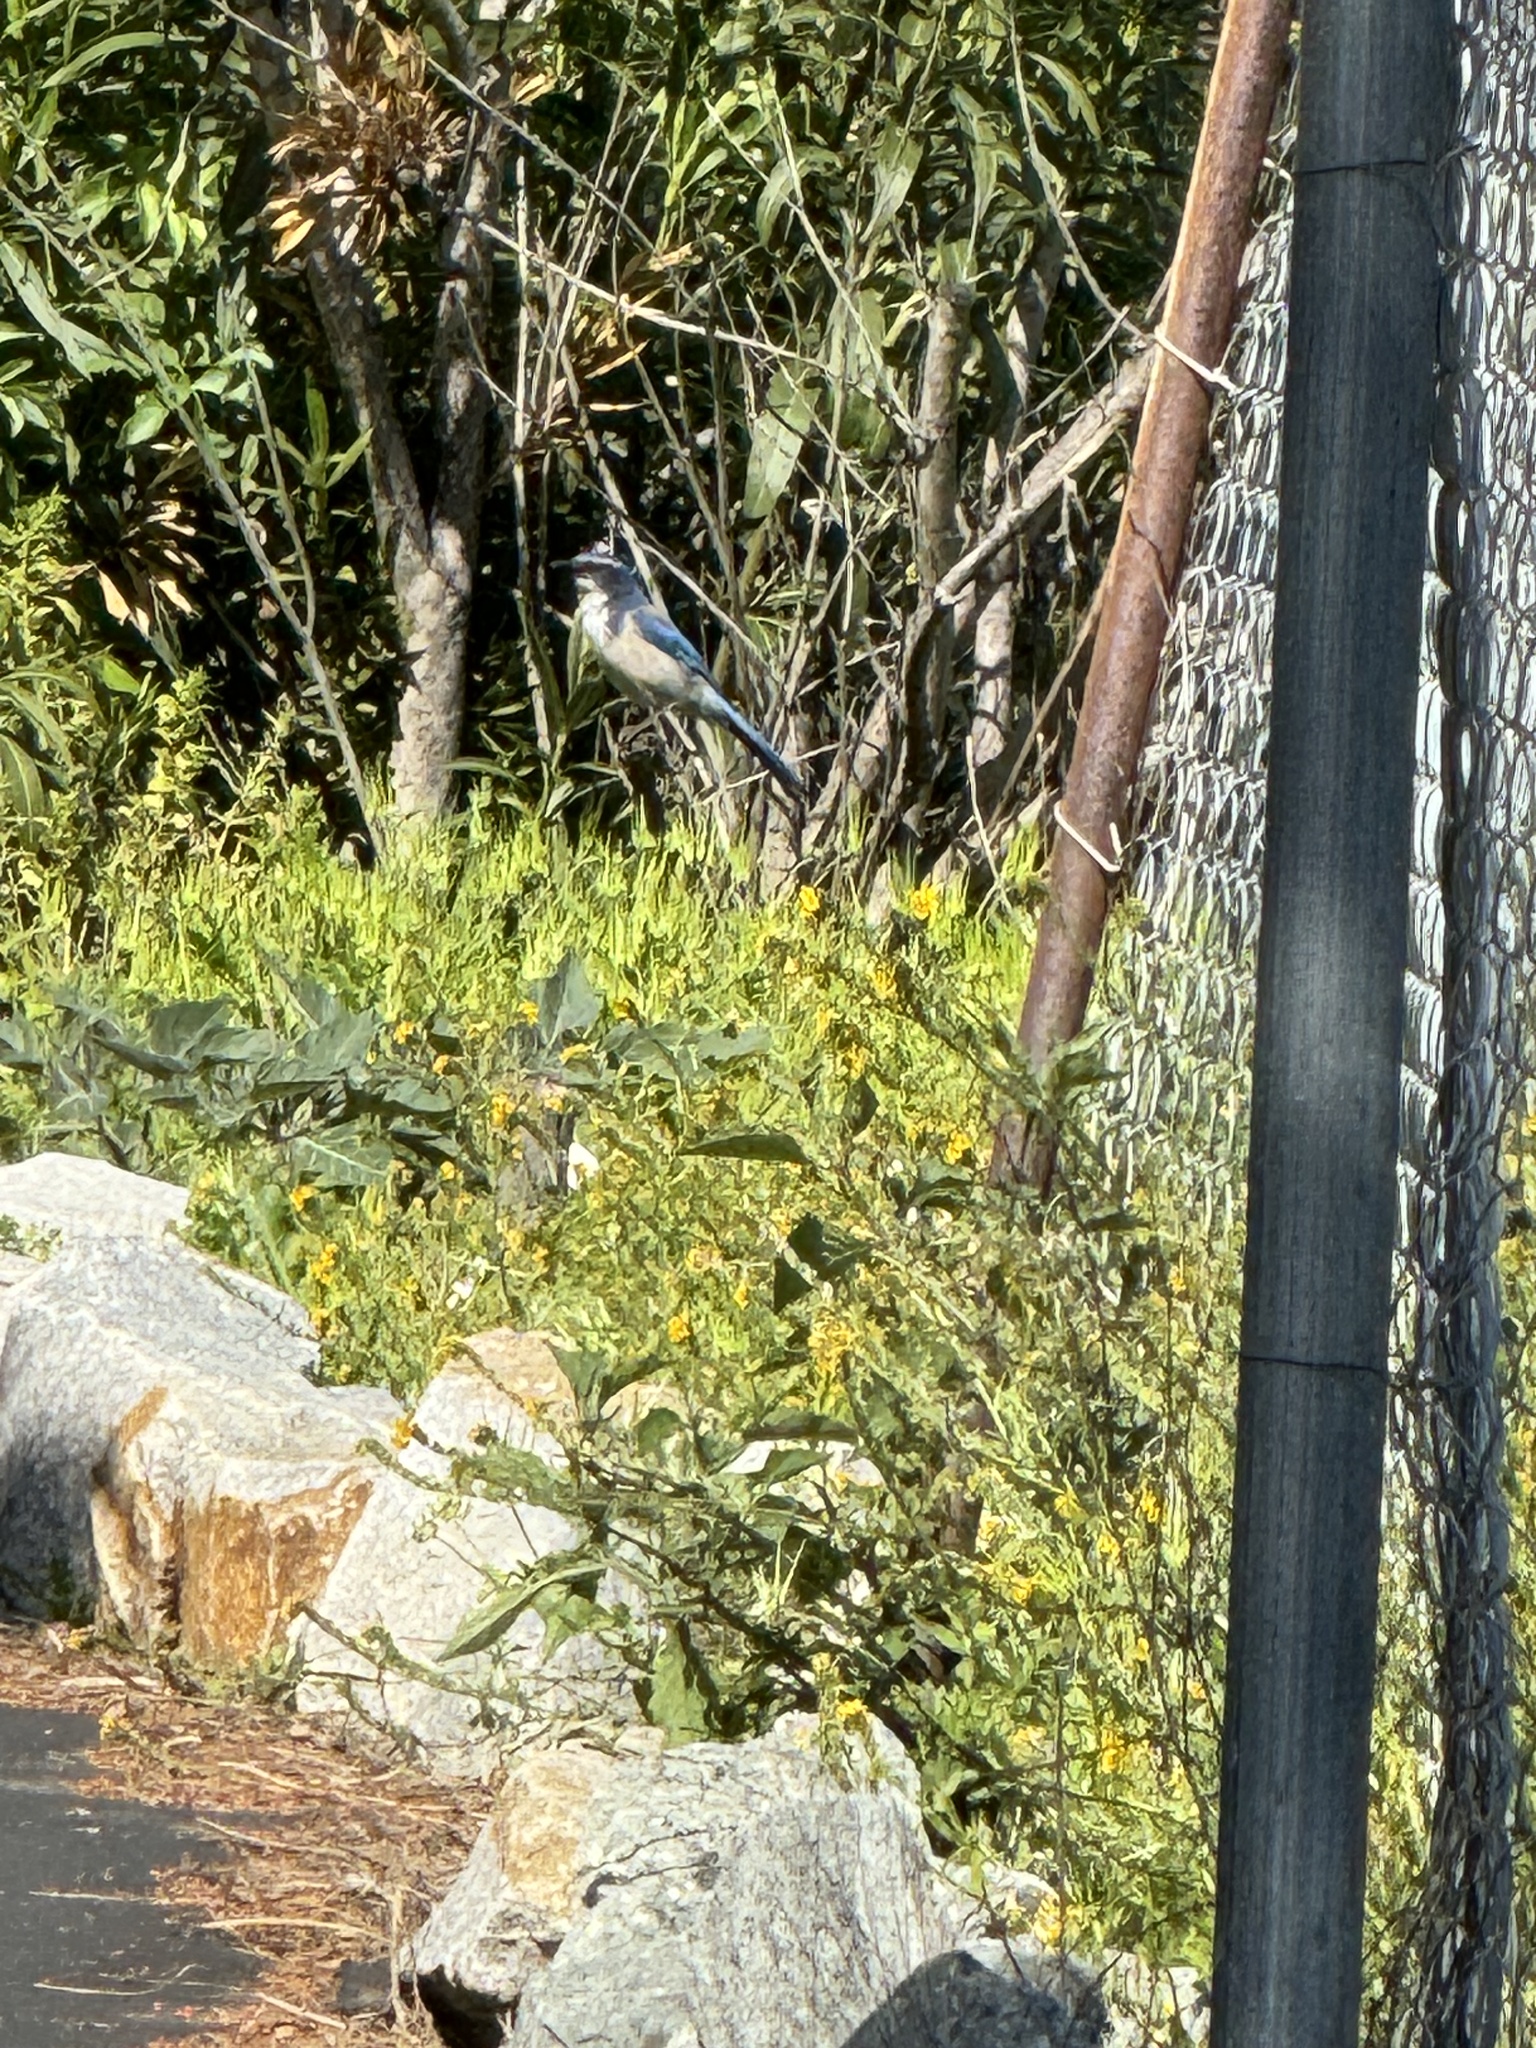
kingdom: Animalia
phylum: Chordata
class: Aves
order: Passeriformes
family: Corvidae
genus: Aphelocoma
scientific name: Aphelocoma californica
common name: California scrub-jay
